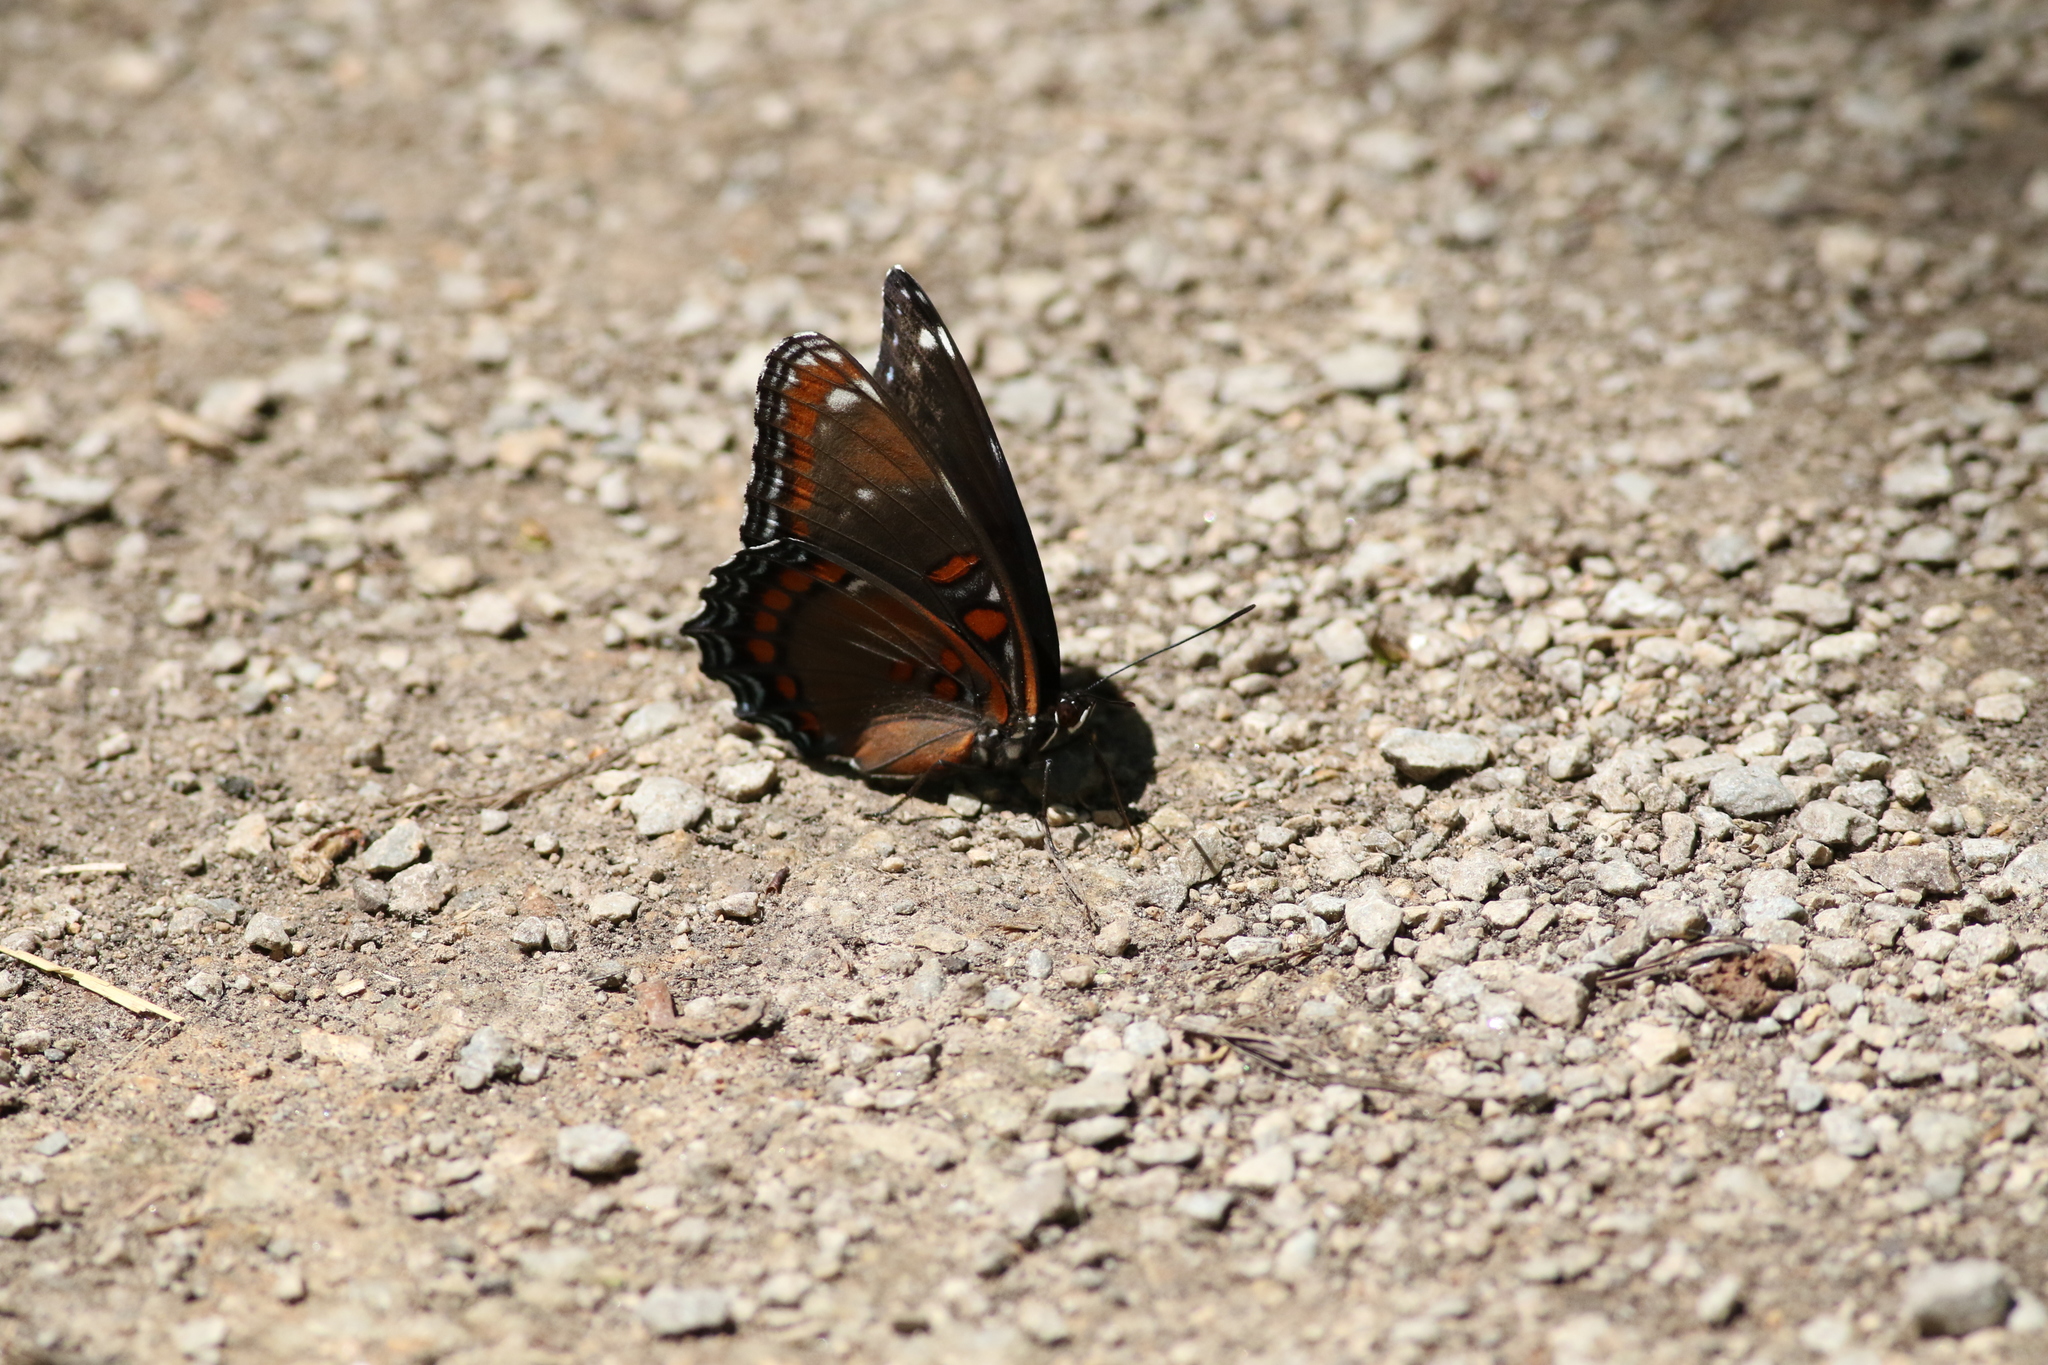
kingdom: Animalia
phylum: Arthropoda
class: Insecta
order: Lepidoptera
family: Nymphalidae
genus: Limenitis
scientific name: Limenitis
